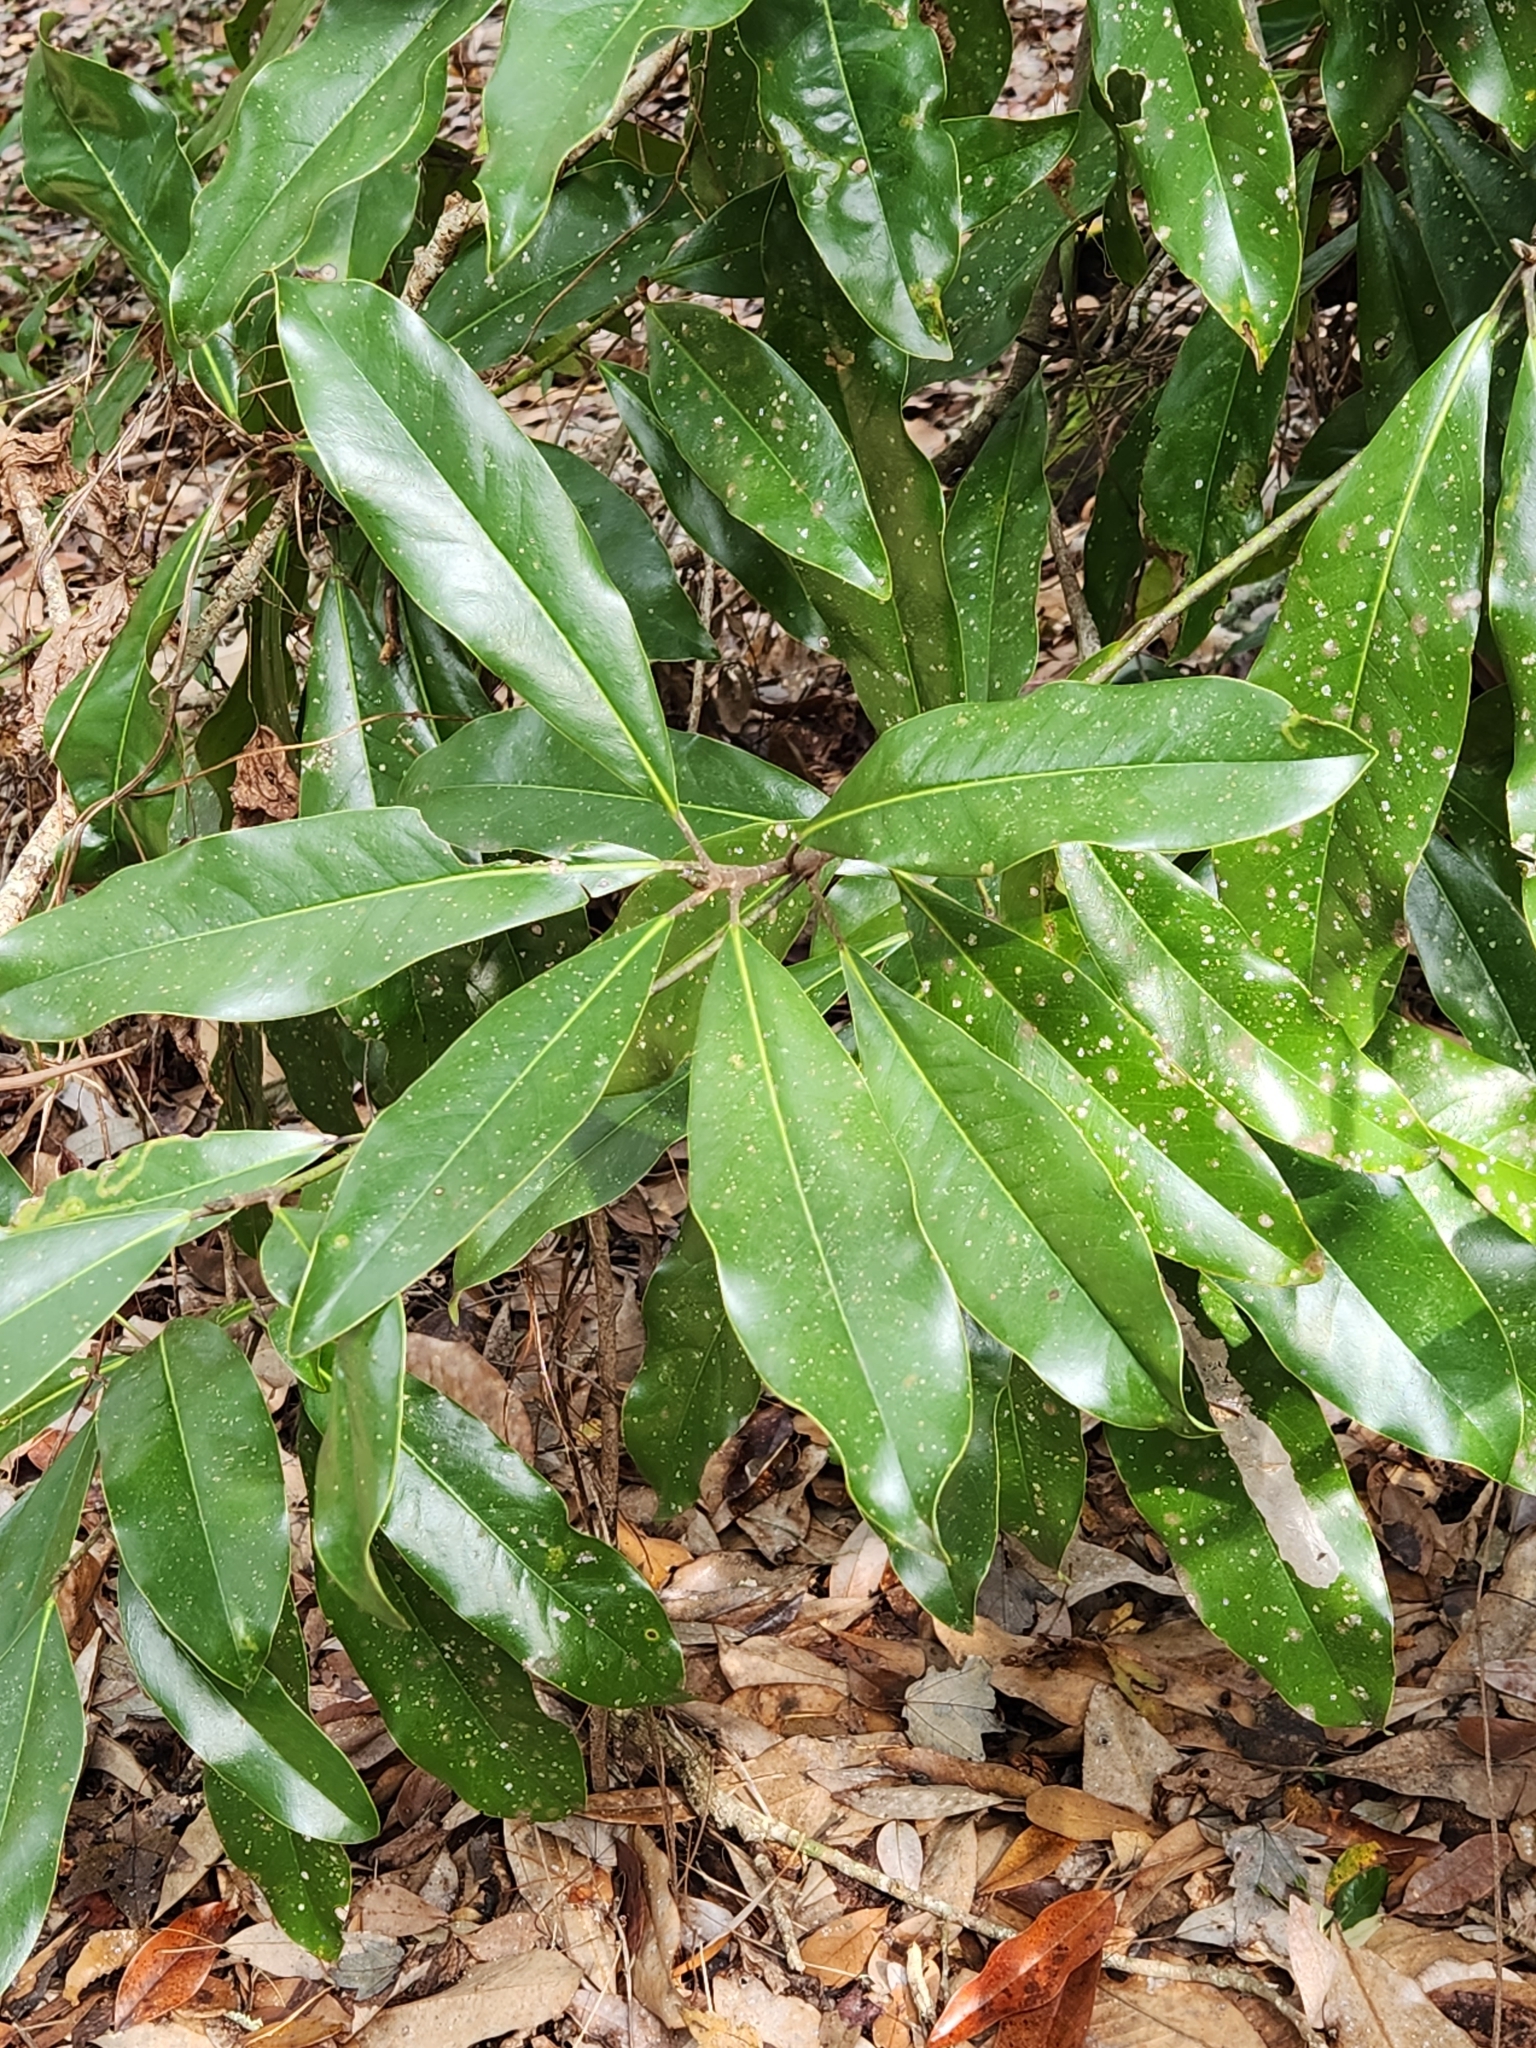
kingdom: Plantae
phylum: Tracheophyta
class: Magnoliopsida
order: Magnoliales
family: Magnoliaceae
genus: Magnolia
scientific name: Magnolia grandiflora
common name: Southern magnolia
